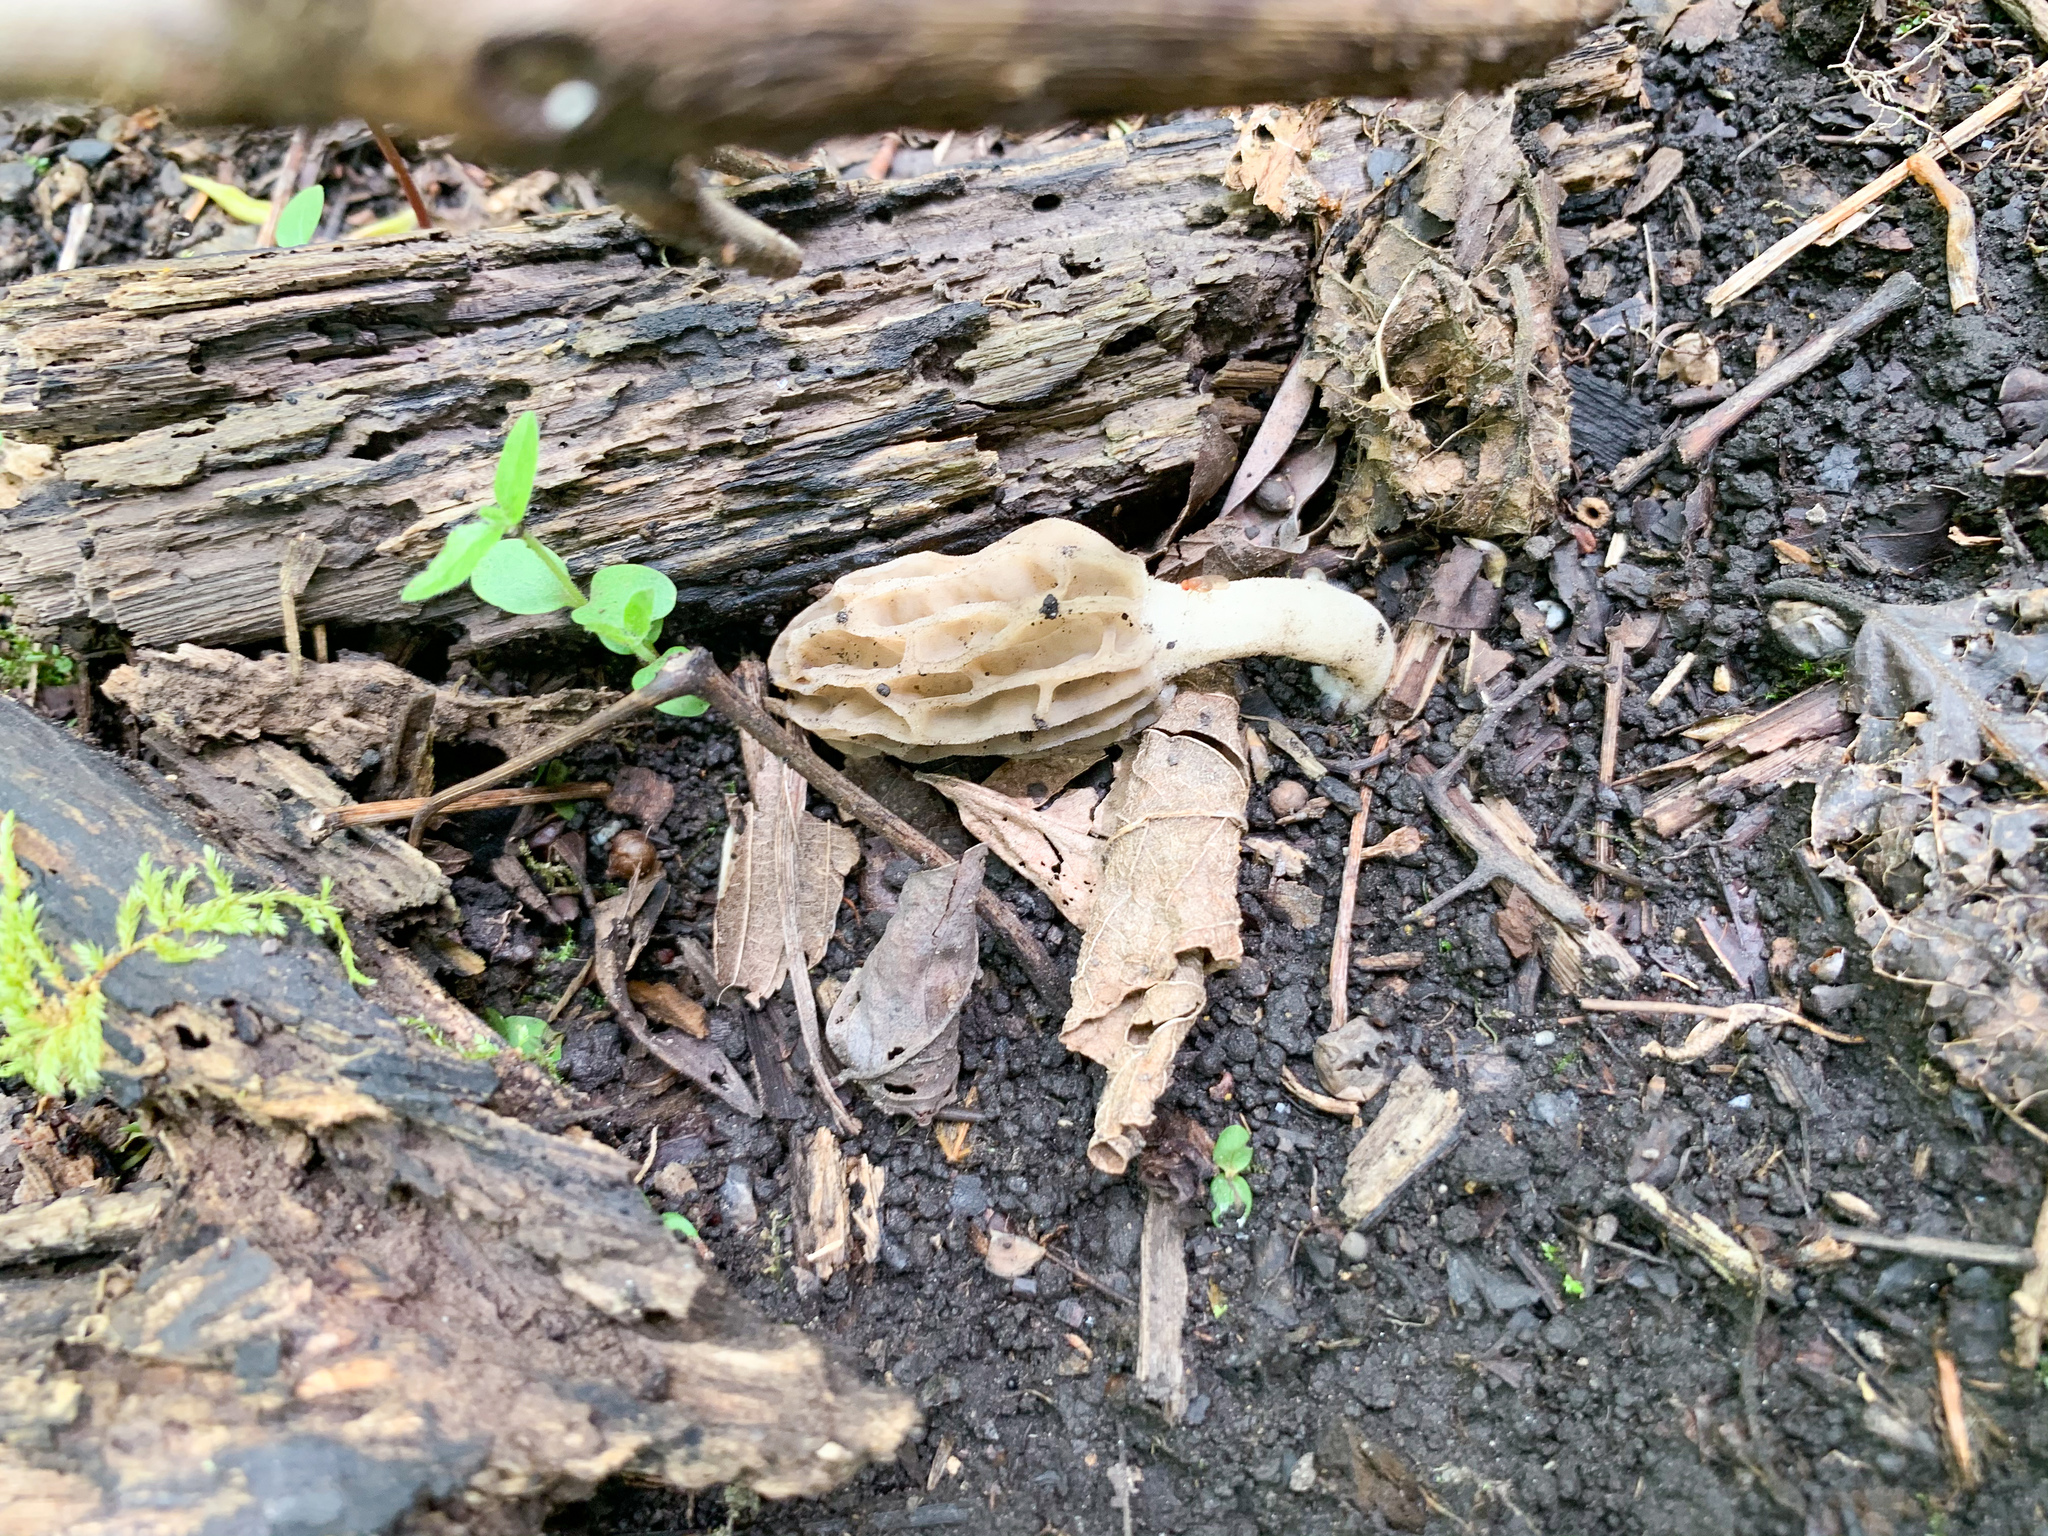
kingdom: Fungi
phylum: Ascomycota
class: Pezizomycetes
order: Pezizales
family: Morchellaceae
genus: Morchella
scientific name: Morchella diminutiva
